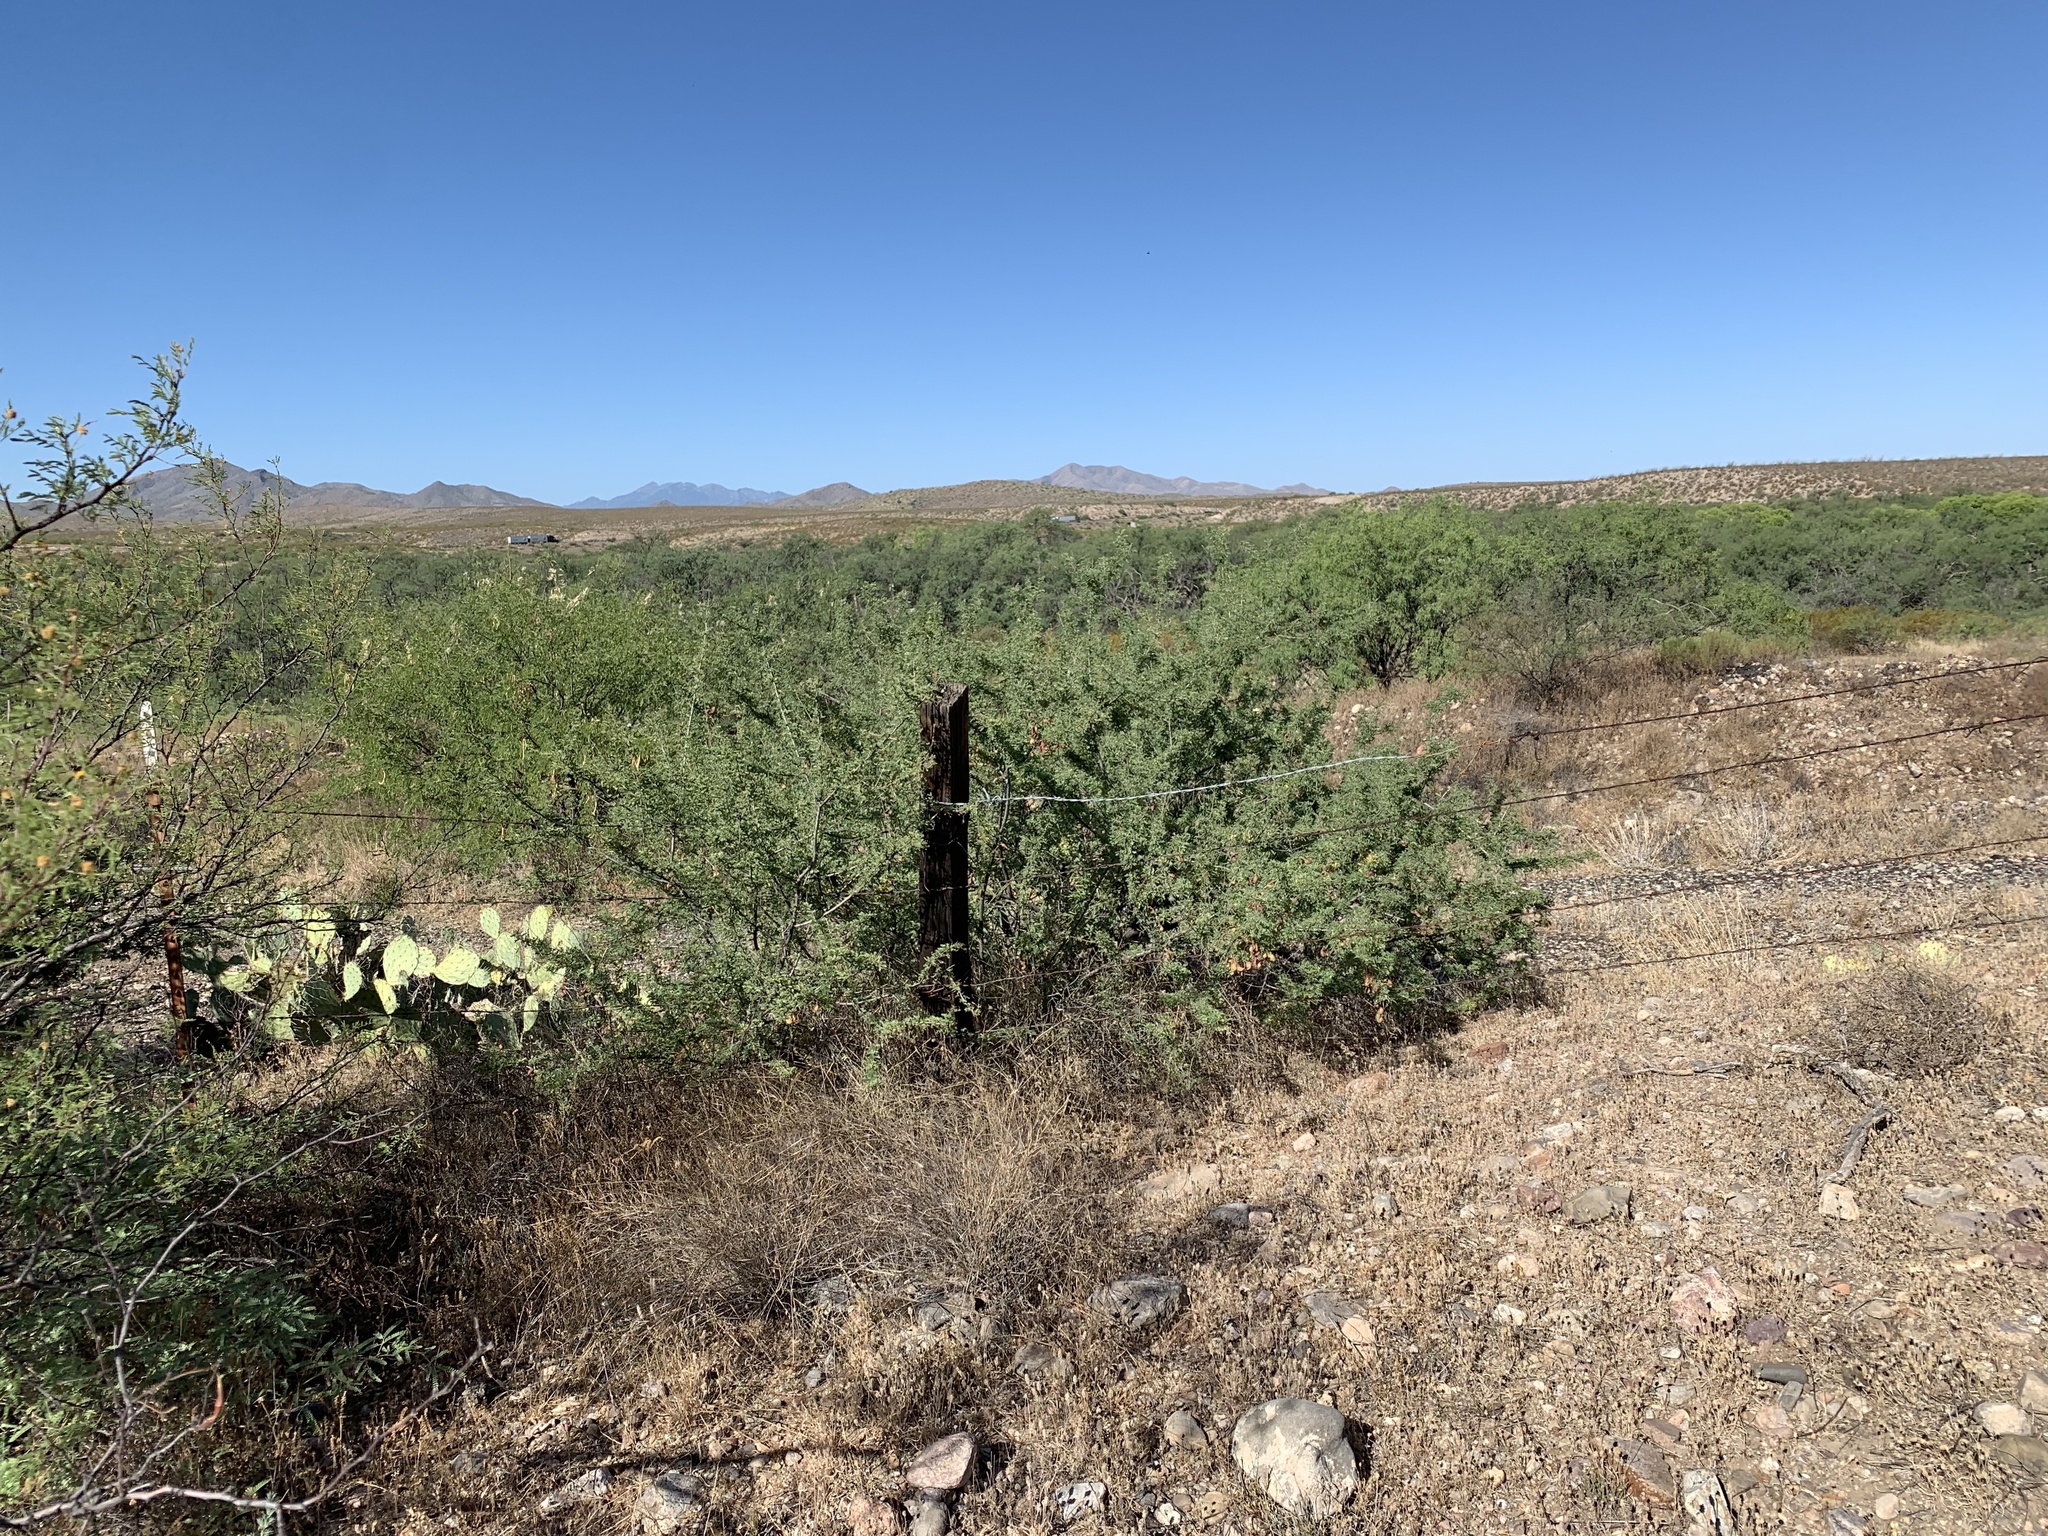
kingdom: Plantae
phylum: Tracheophyta
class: Magnoliopsida
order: Fabales
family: Fabaceae
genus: Senegalia
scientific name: Senegalia greggii
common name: Texas-mimosa
